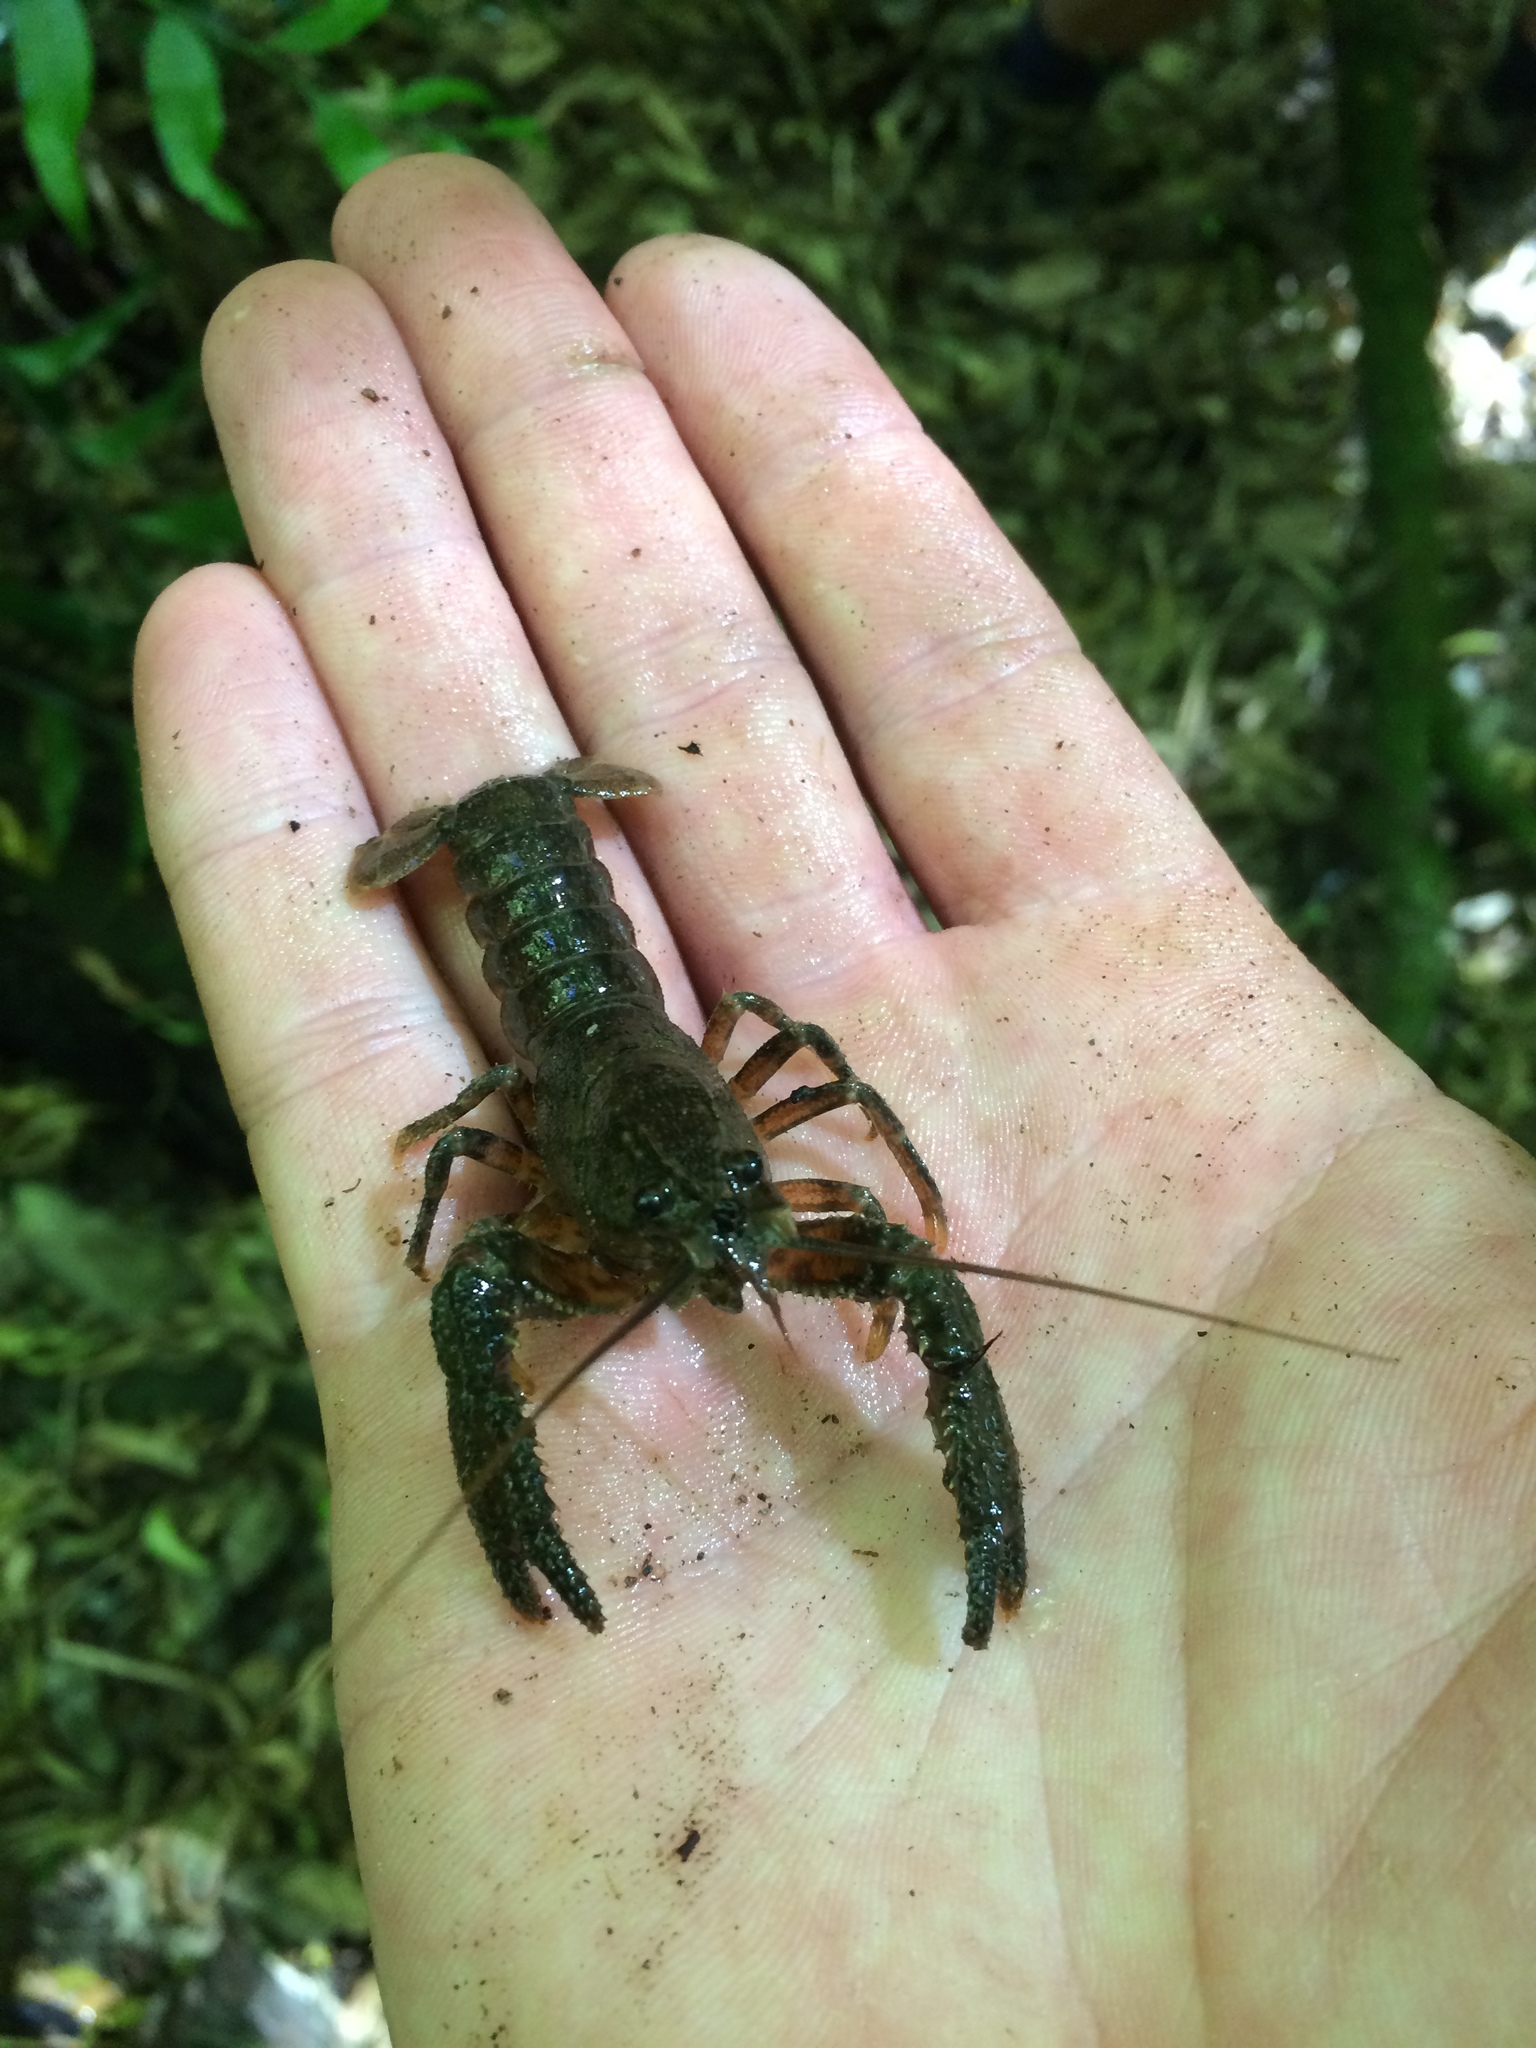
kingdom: Animalia
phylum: Arthropoda
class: Malacostraca
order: Decapoda
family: Parastacidae
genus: Paranephrops
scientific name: Paranephrops planifrons
